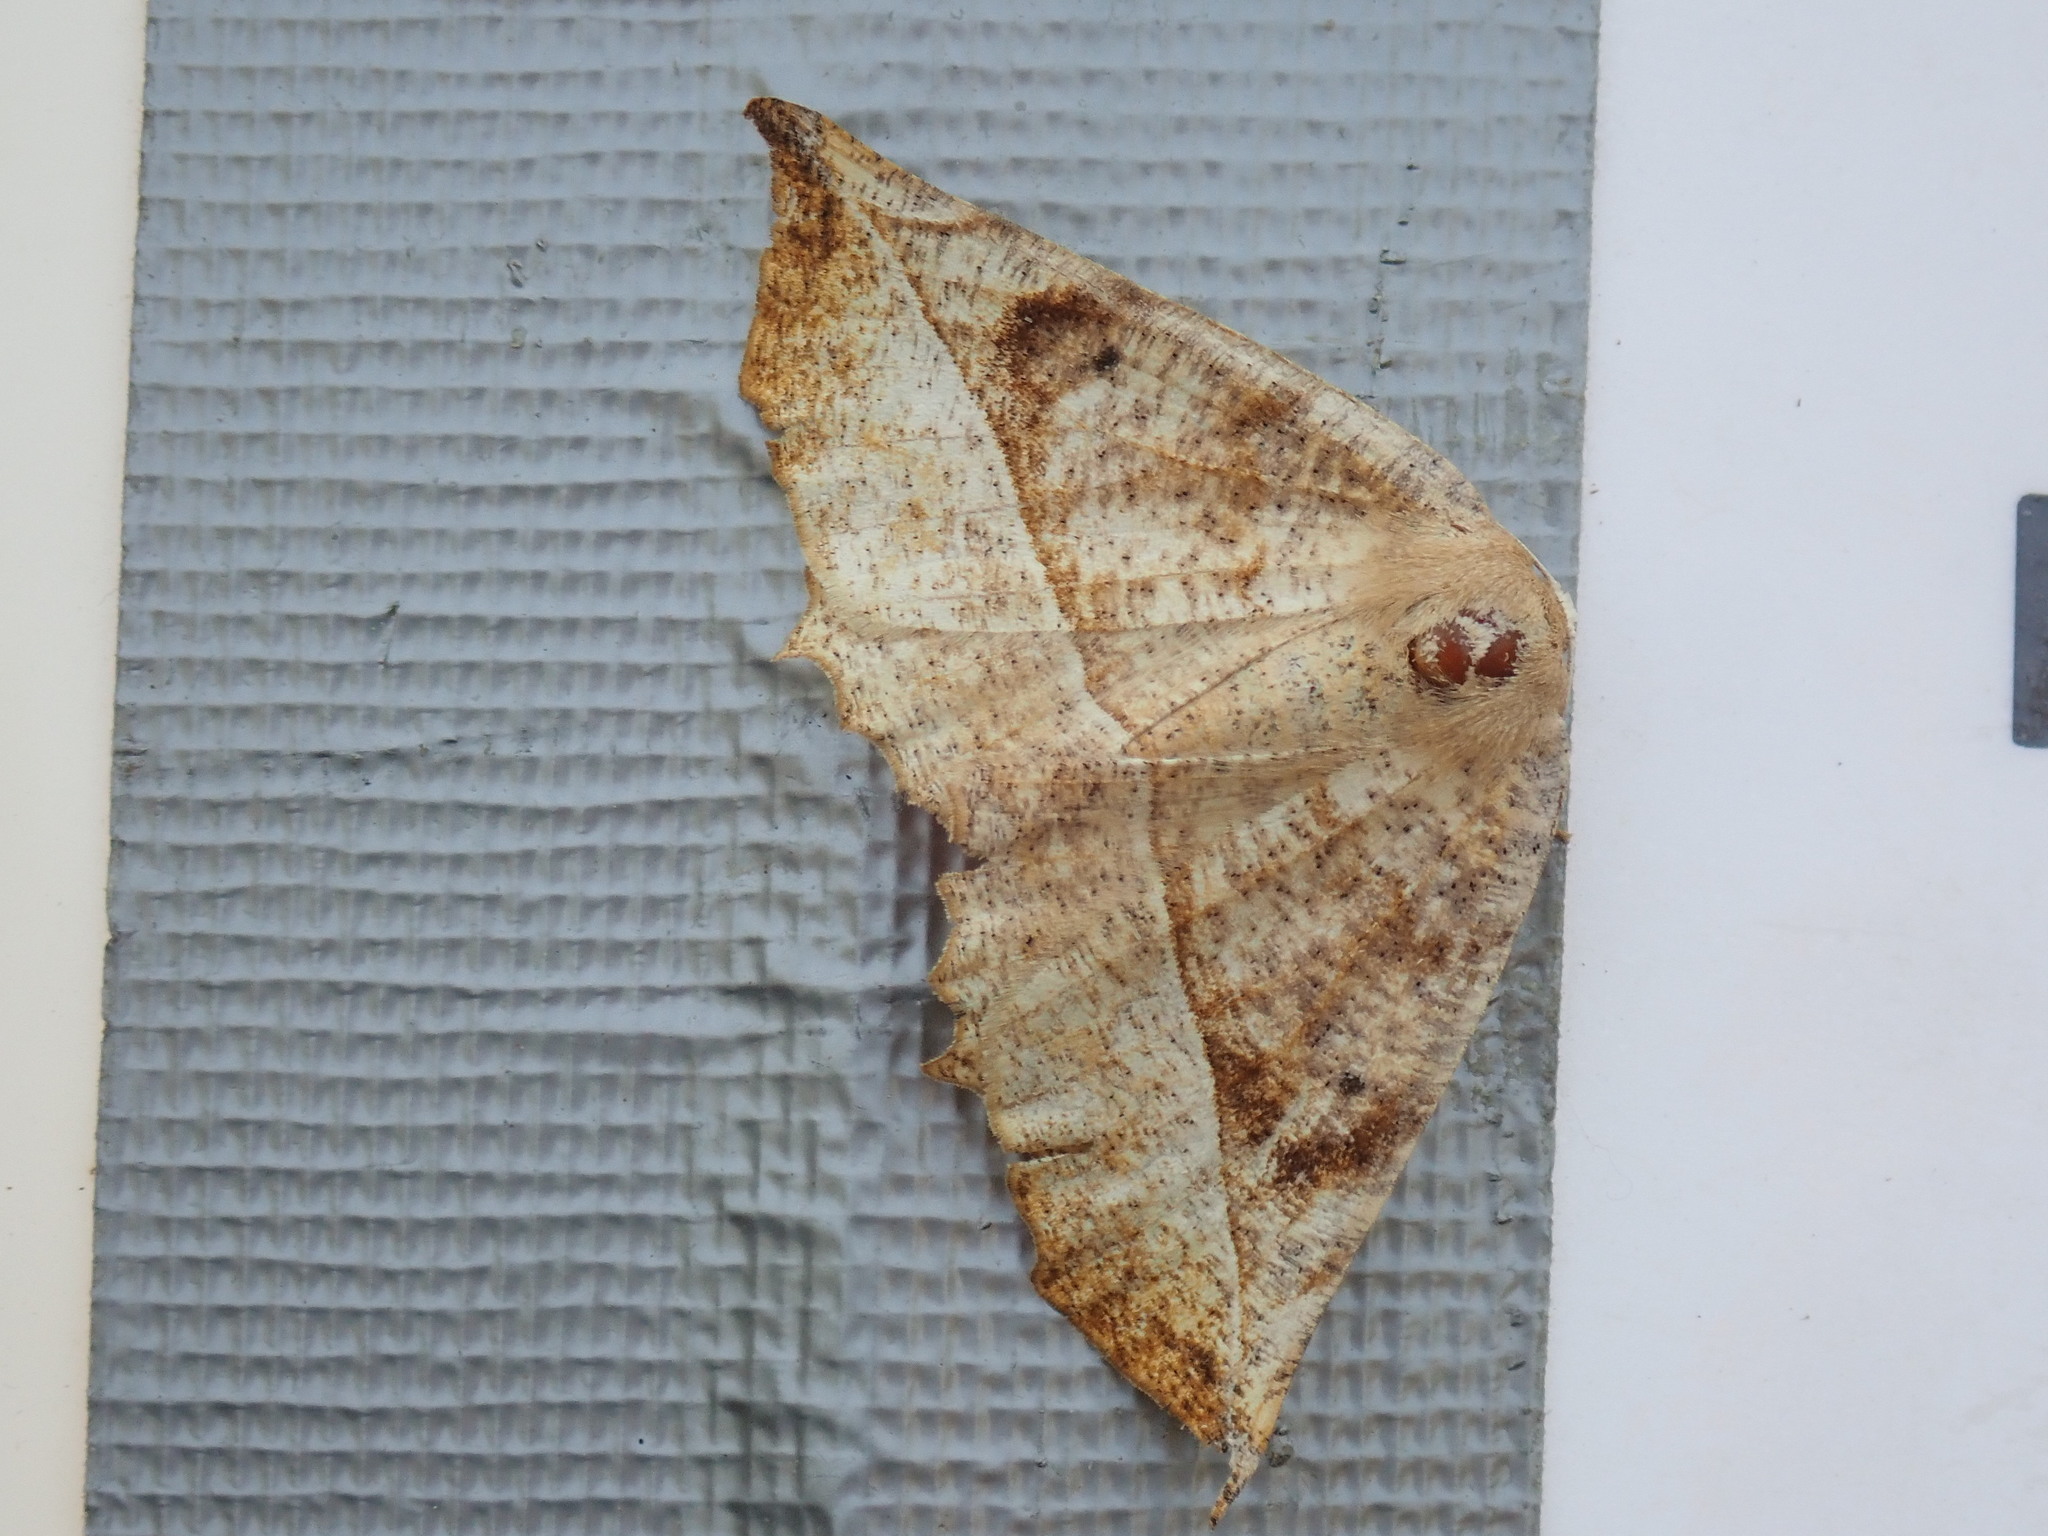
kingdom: Animalia
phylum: Arthropoda
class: Insecta
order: Lepidoptera
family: Geometridae
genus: Eutrapela
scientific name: Eutrapela clemataria
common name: Curved-toothed geometer
